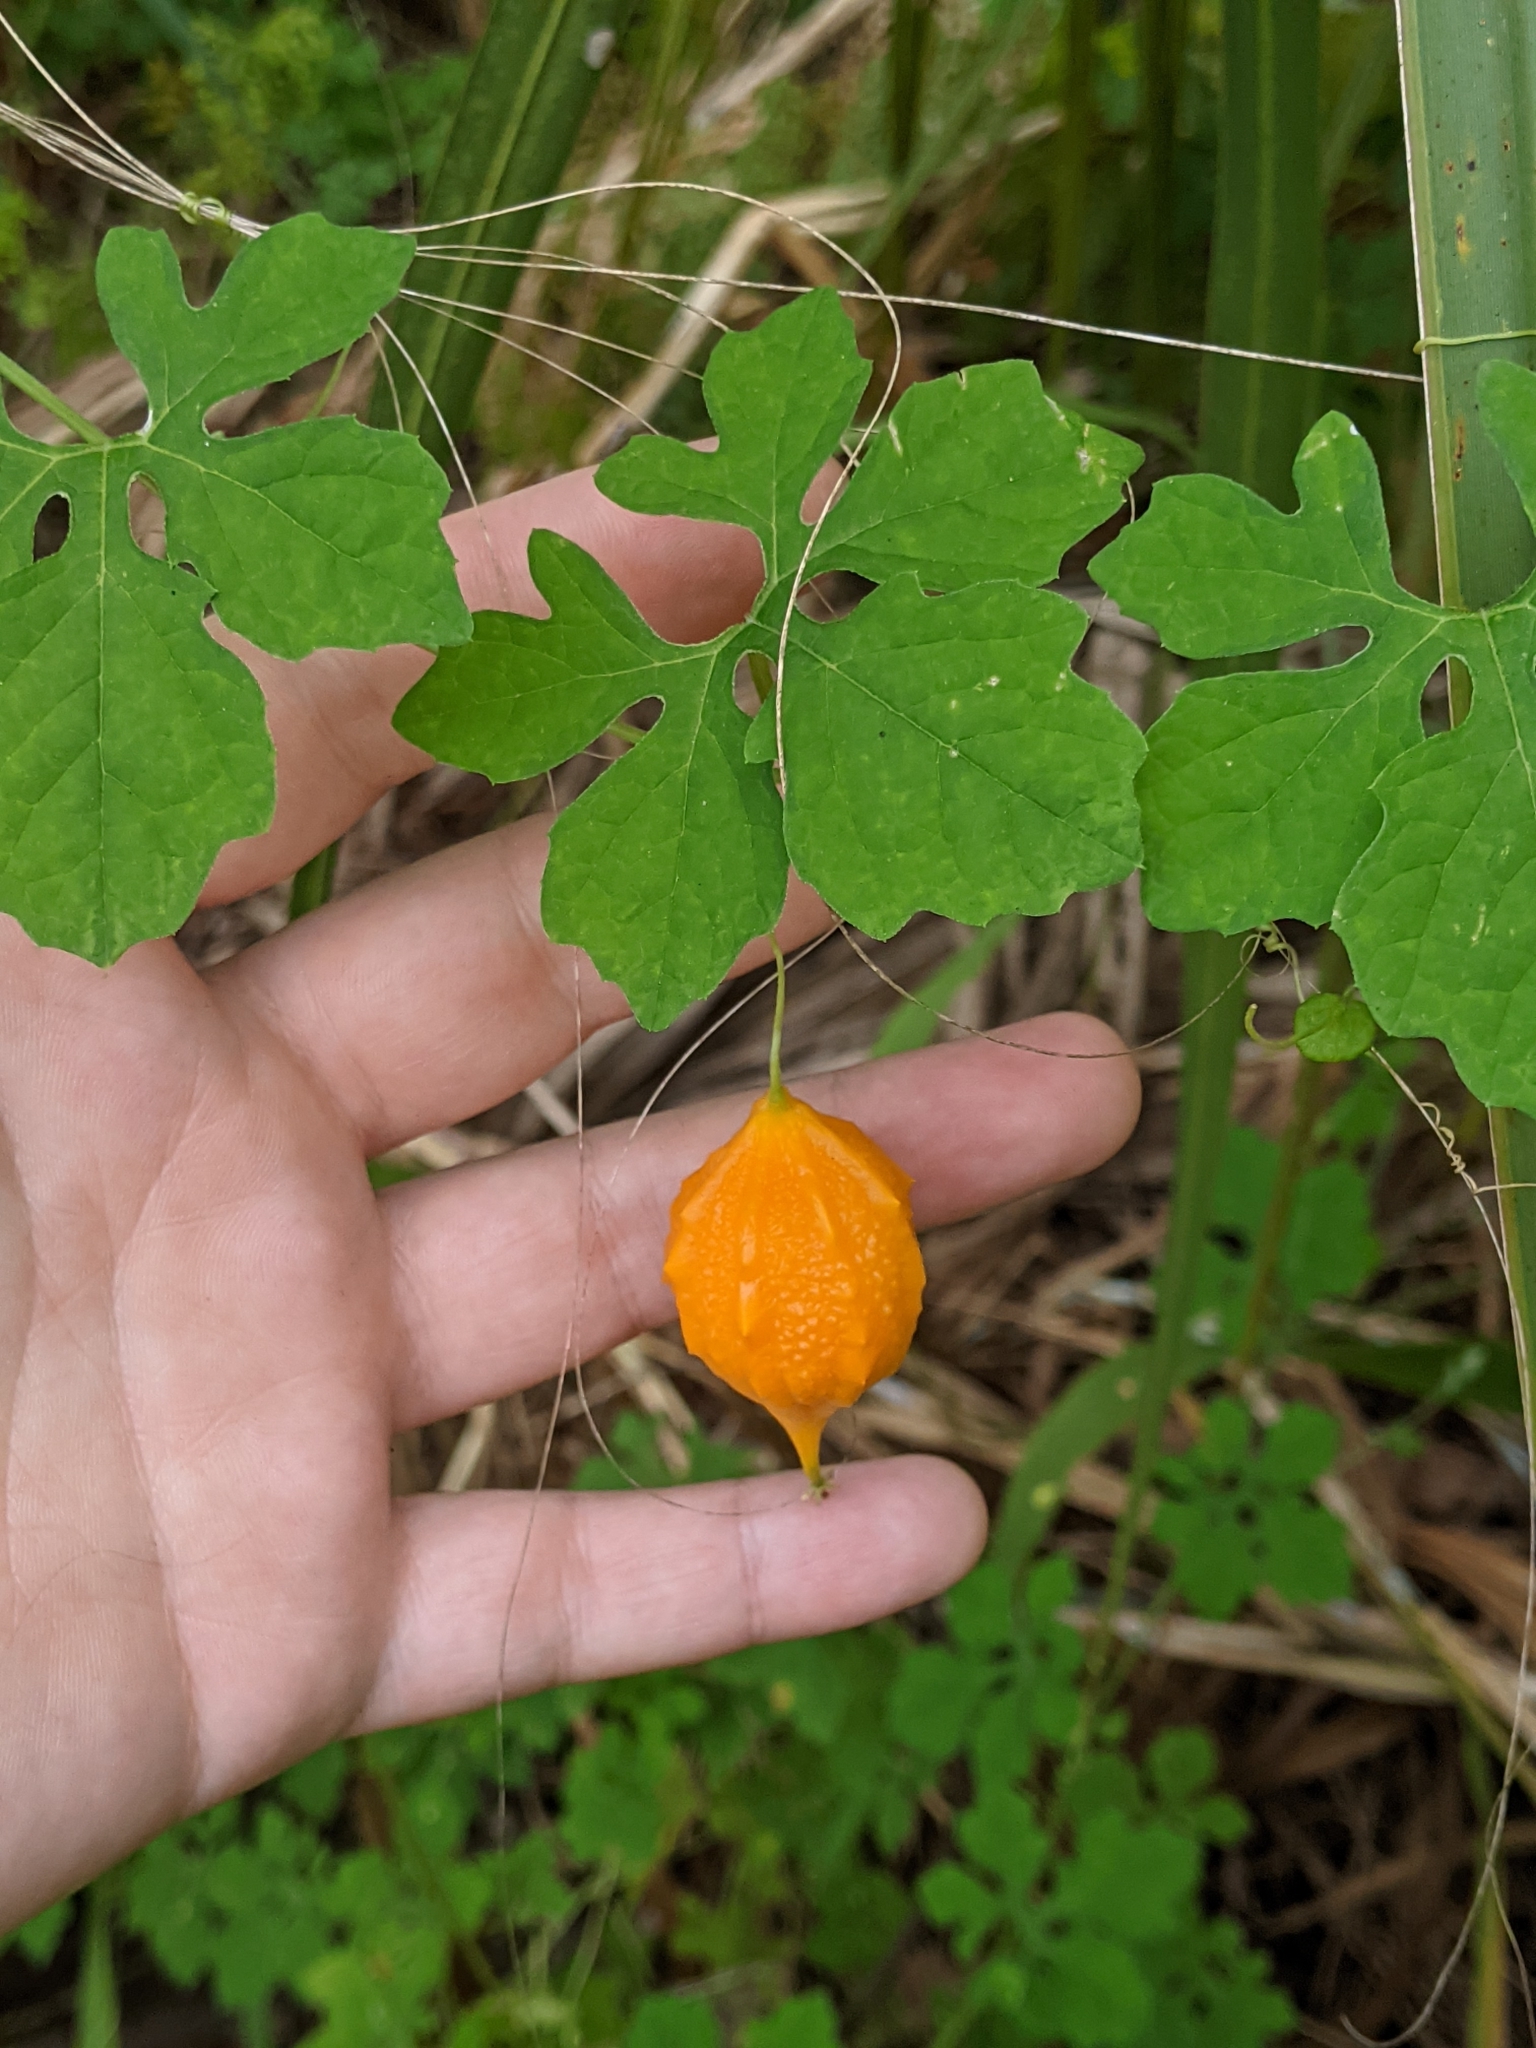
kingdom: Plantae
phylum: Tracheophyta
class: Magnoliopsida
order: Cucurbitales
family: Cucurbitaceae
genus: Momordica
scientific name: Momordica charantia
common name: Balsampear
